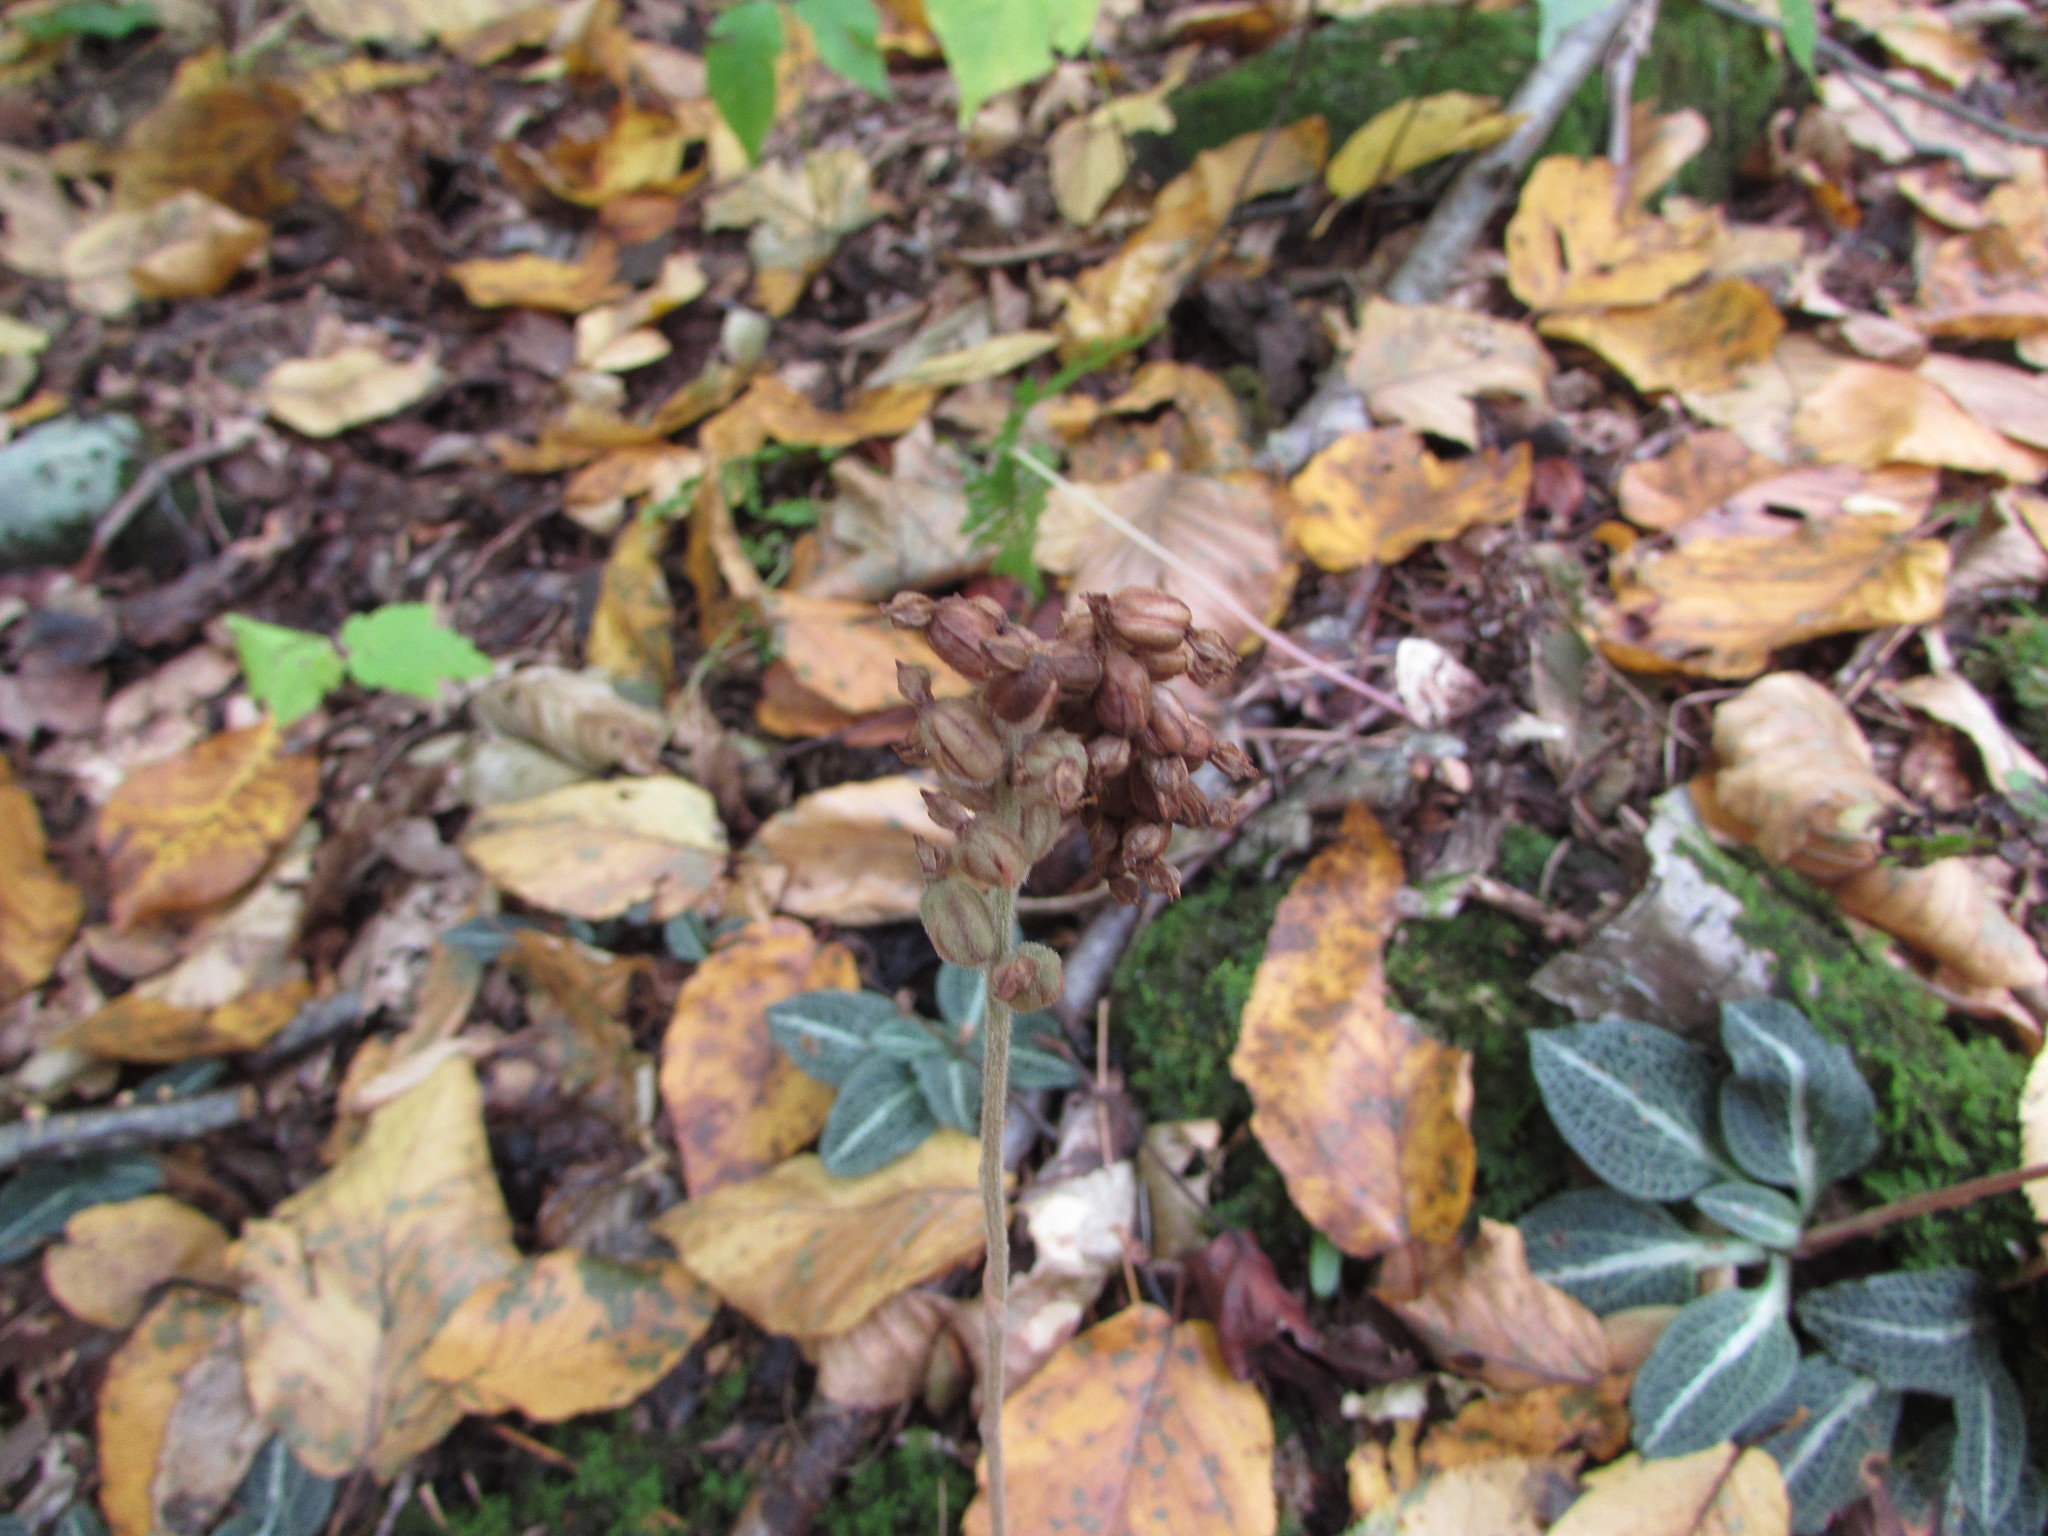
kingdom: Plantae
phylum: Tracheophyta
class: Liliopsida
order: Asparagales
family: Orchidaceae
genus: Goodyera
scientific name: Goodyera pubescens
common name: Downy rattlesnake-plantain
